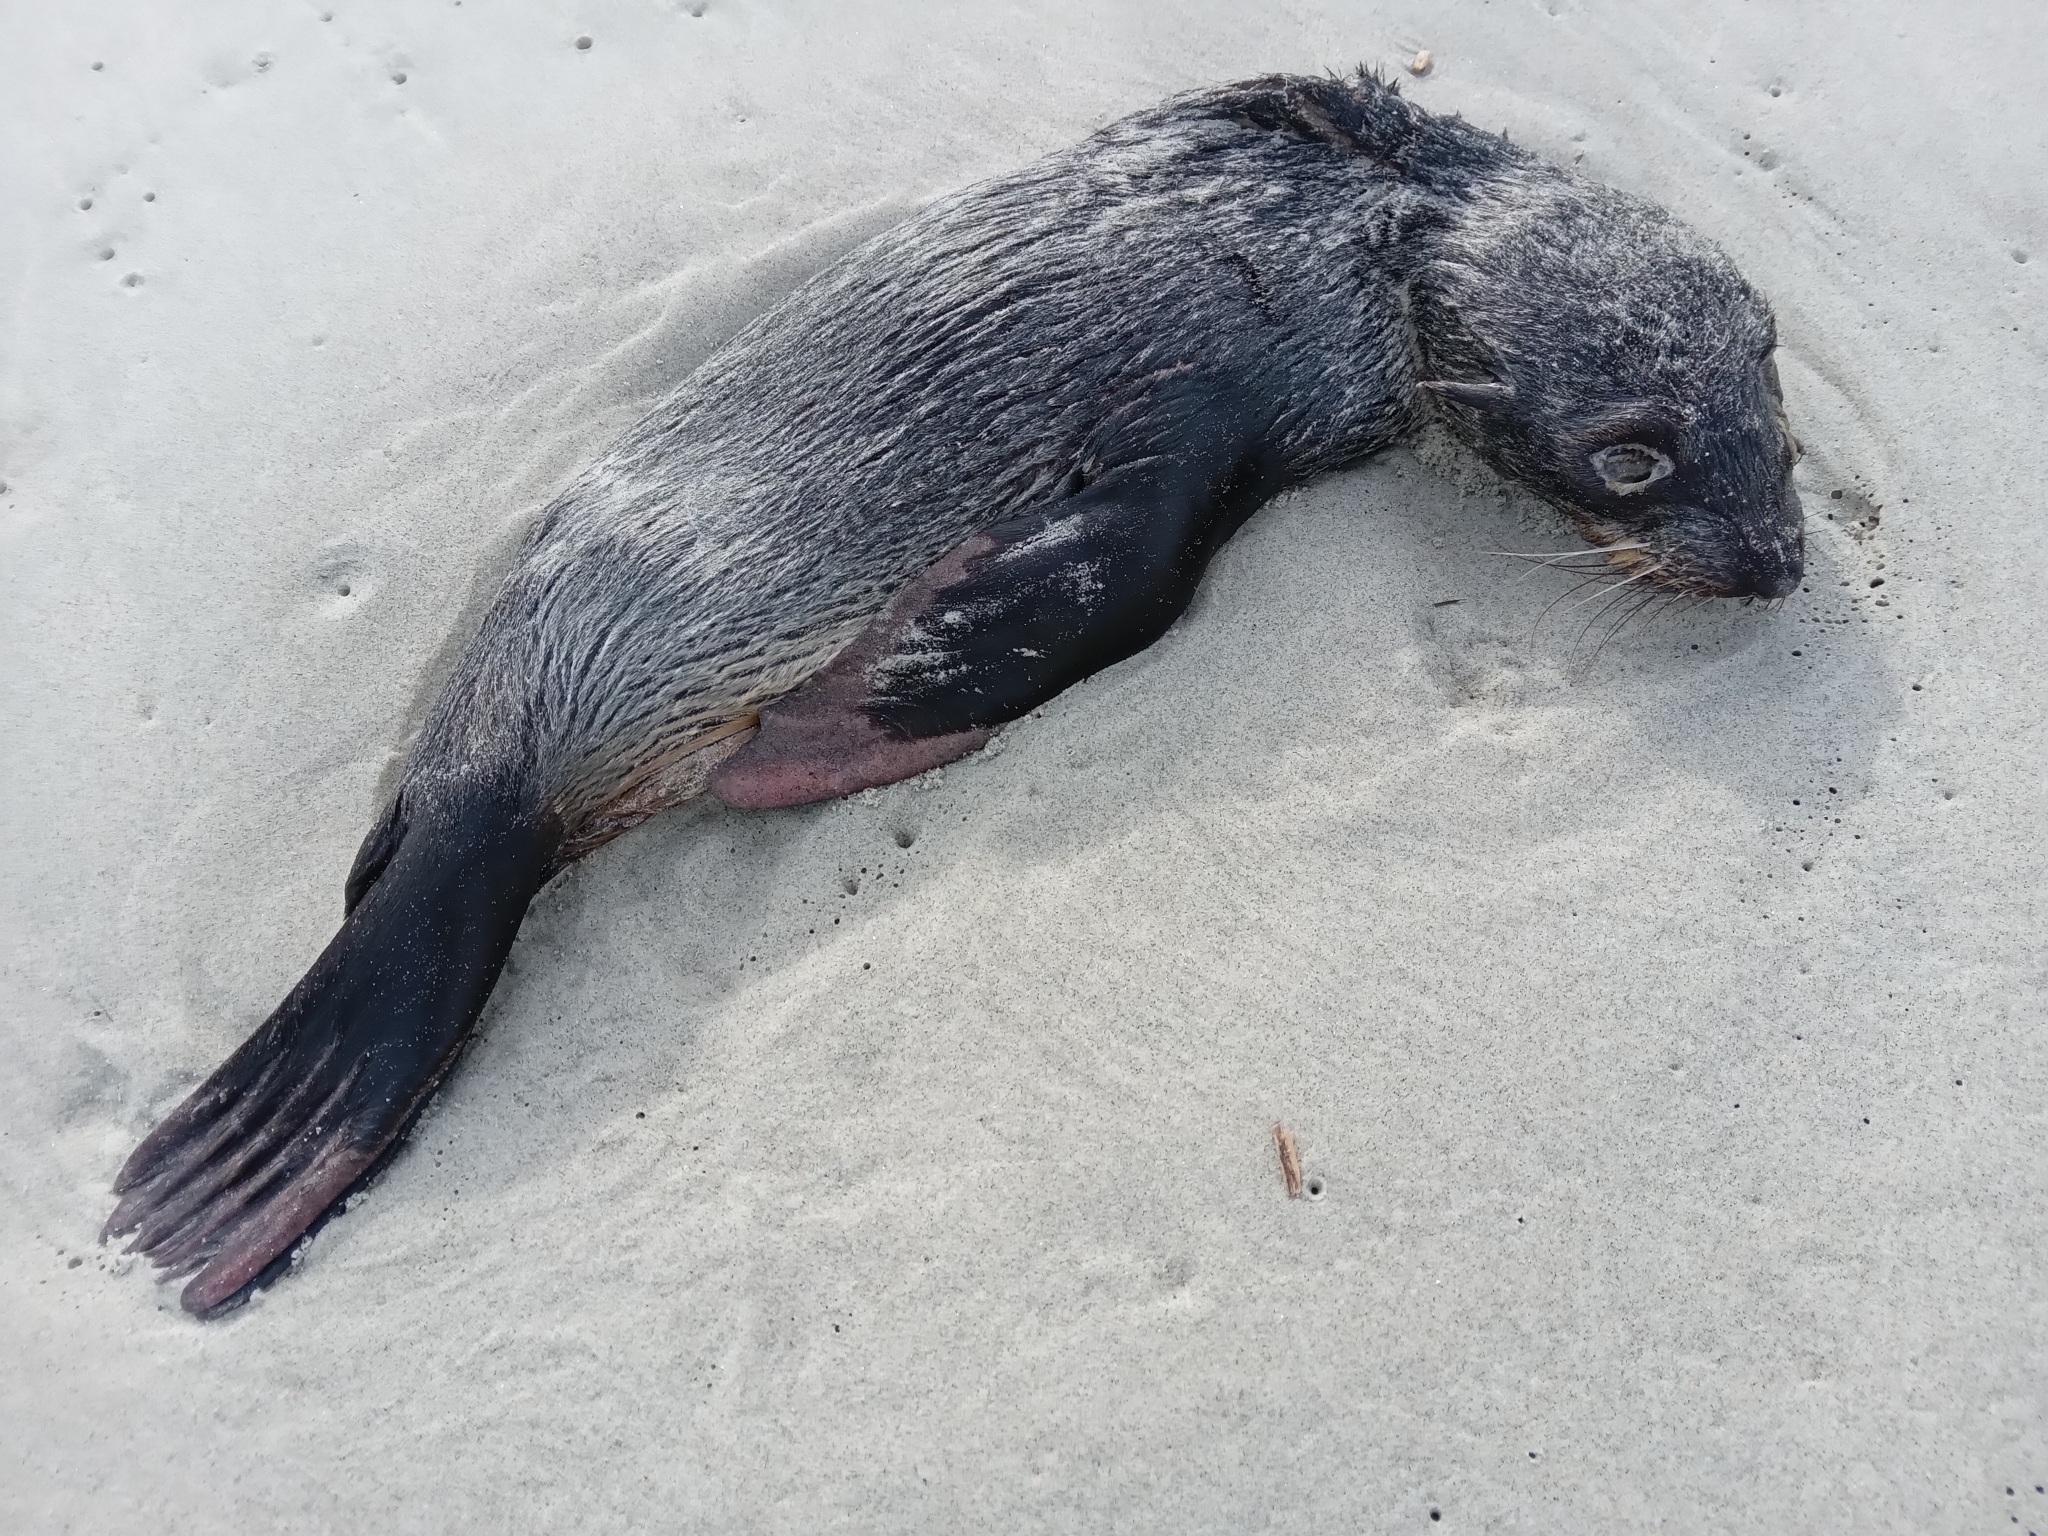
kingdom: Animalia
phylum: Chordata
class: Mammalia
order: Carnivora
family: Otariidae
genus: Arctocephalus
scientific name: Arctocephalus forsteri
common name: New zealand fur seal
